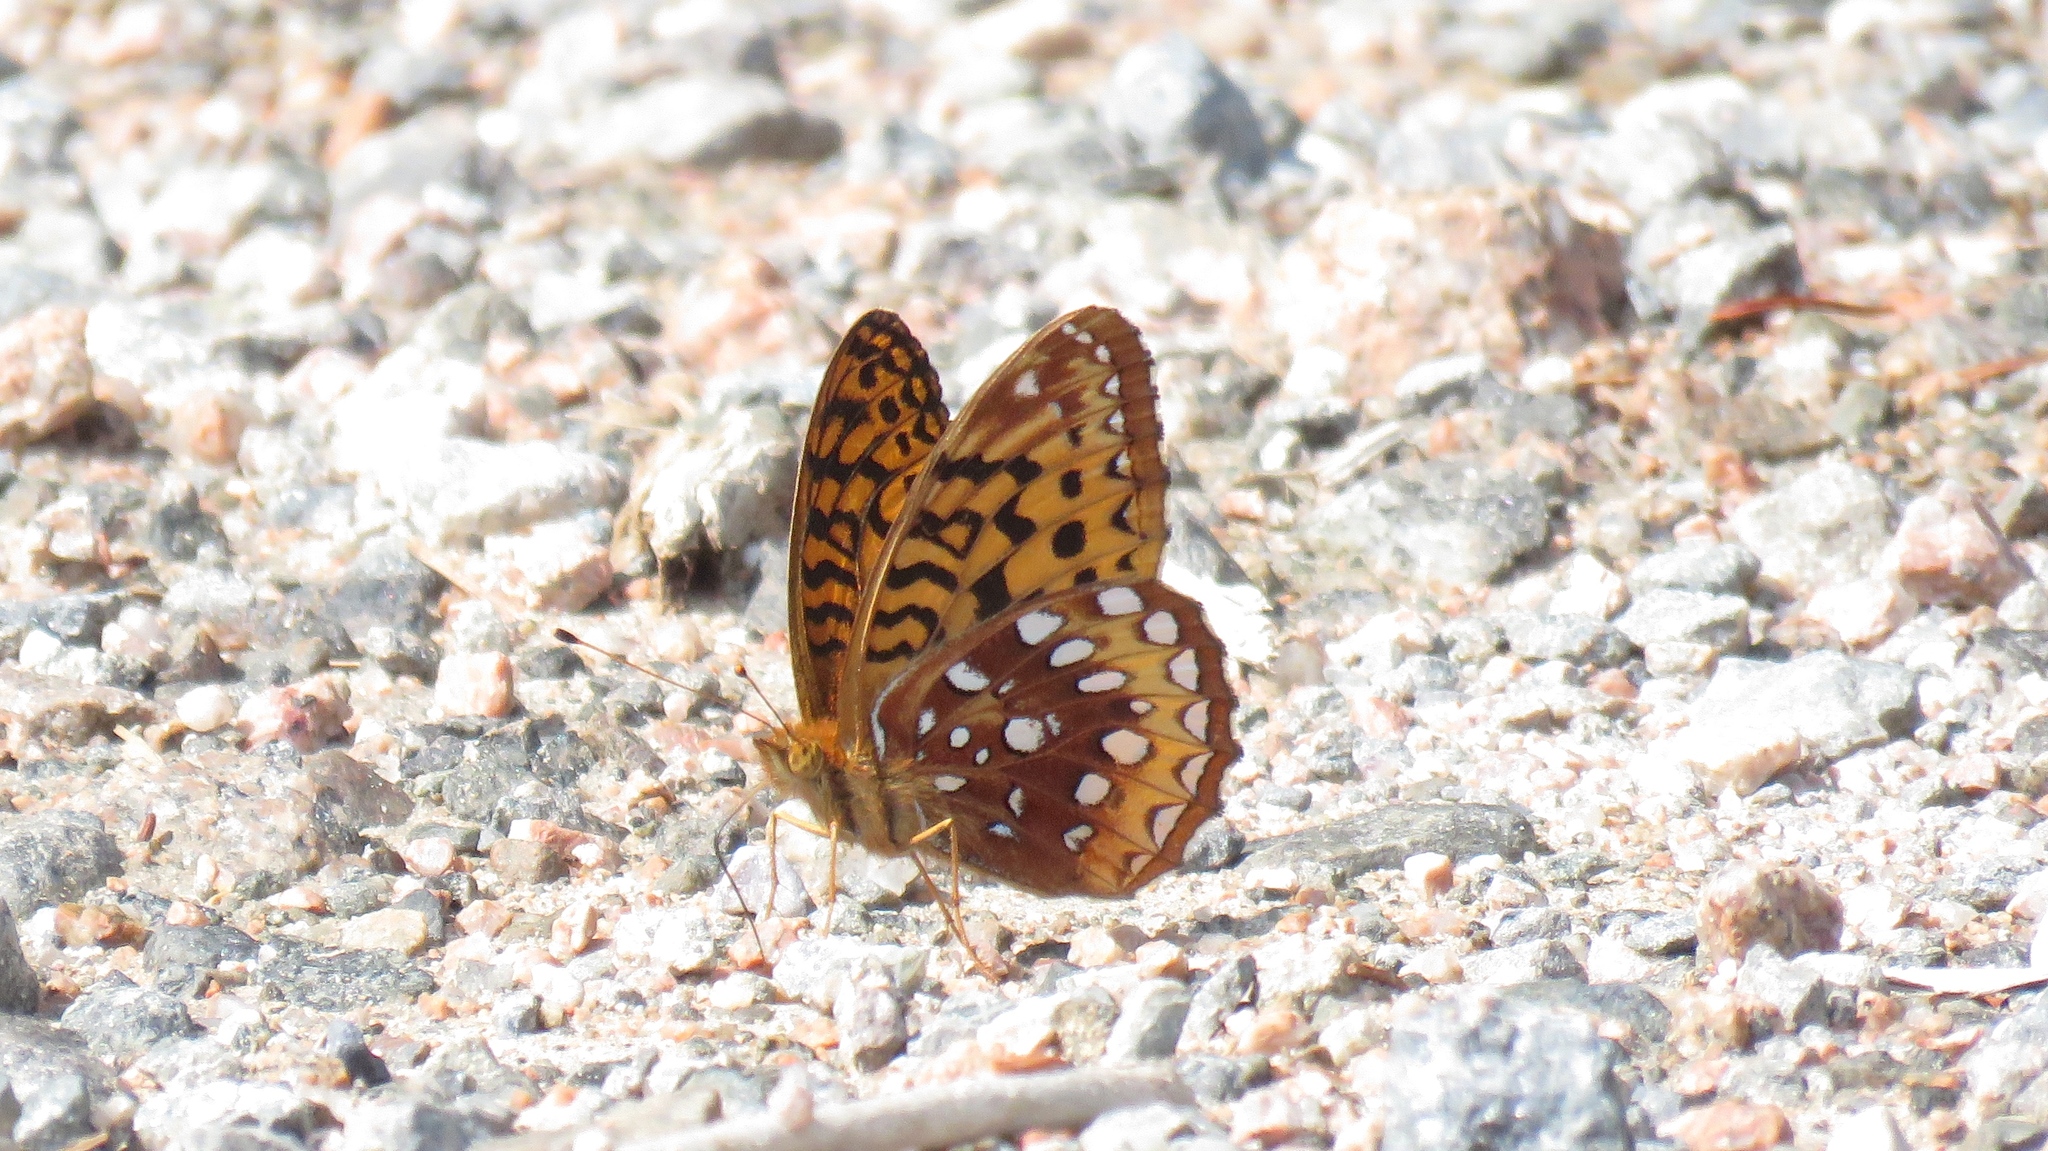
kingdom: Animalia
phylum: Arthropoda
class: Insecta
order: Lepidoptera
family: Nymphalidae
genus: Speyeria
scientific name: Speyeria cybele
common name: Great spangled fritillary
